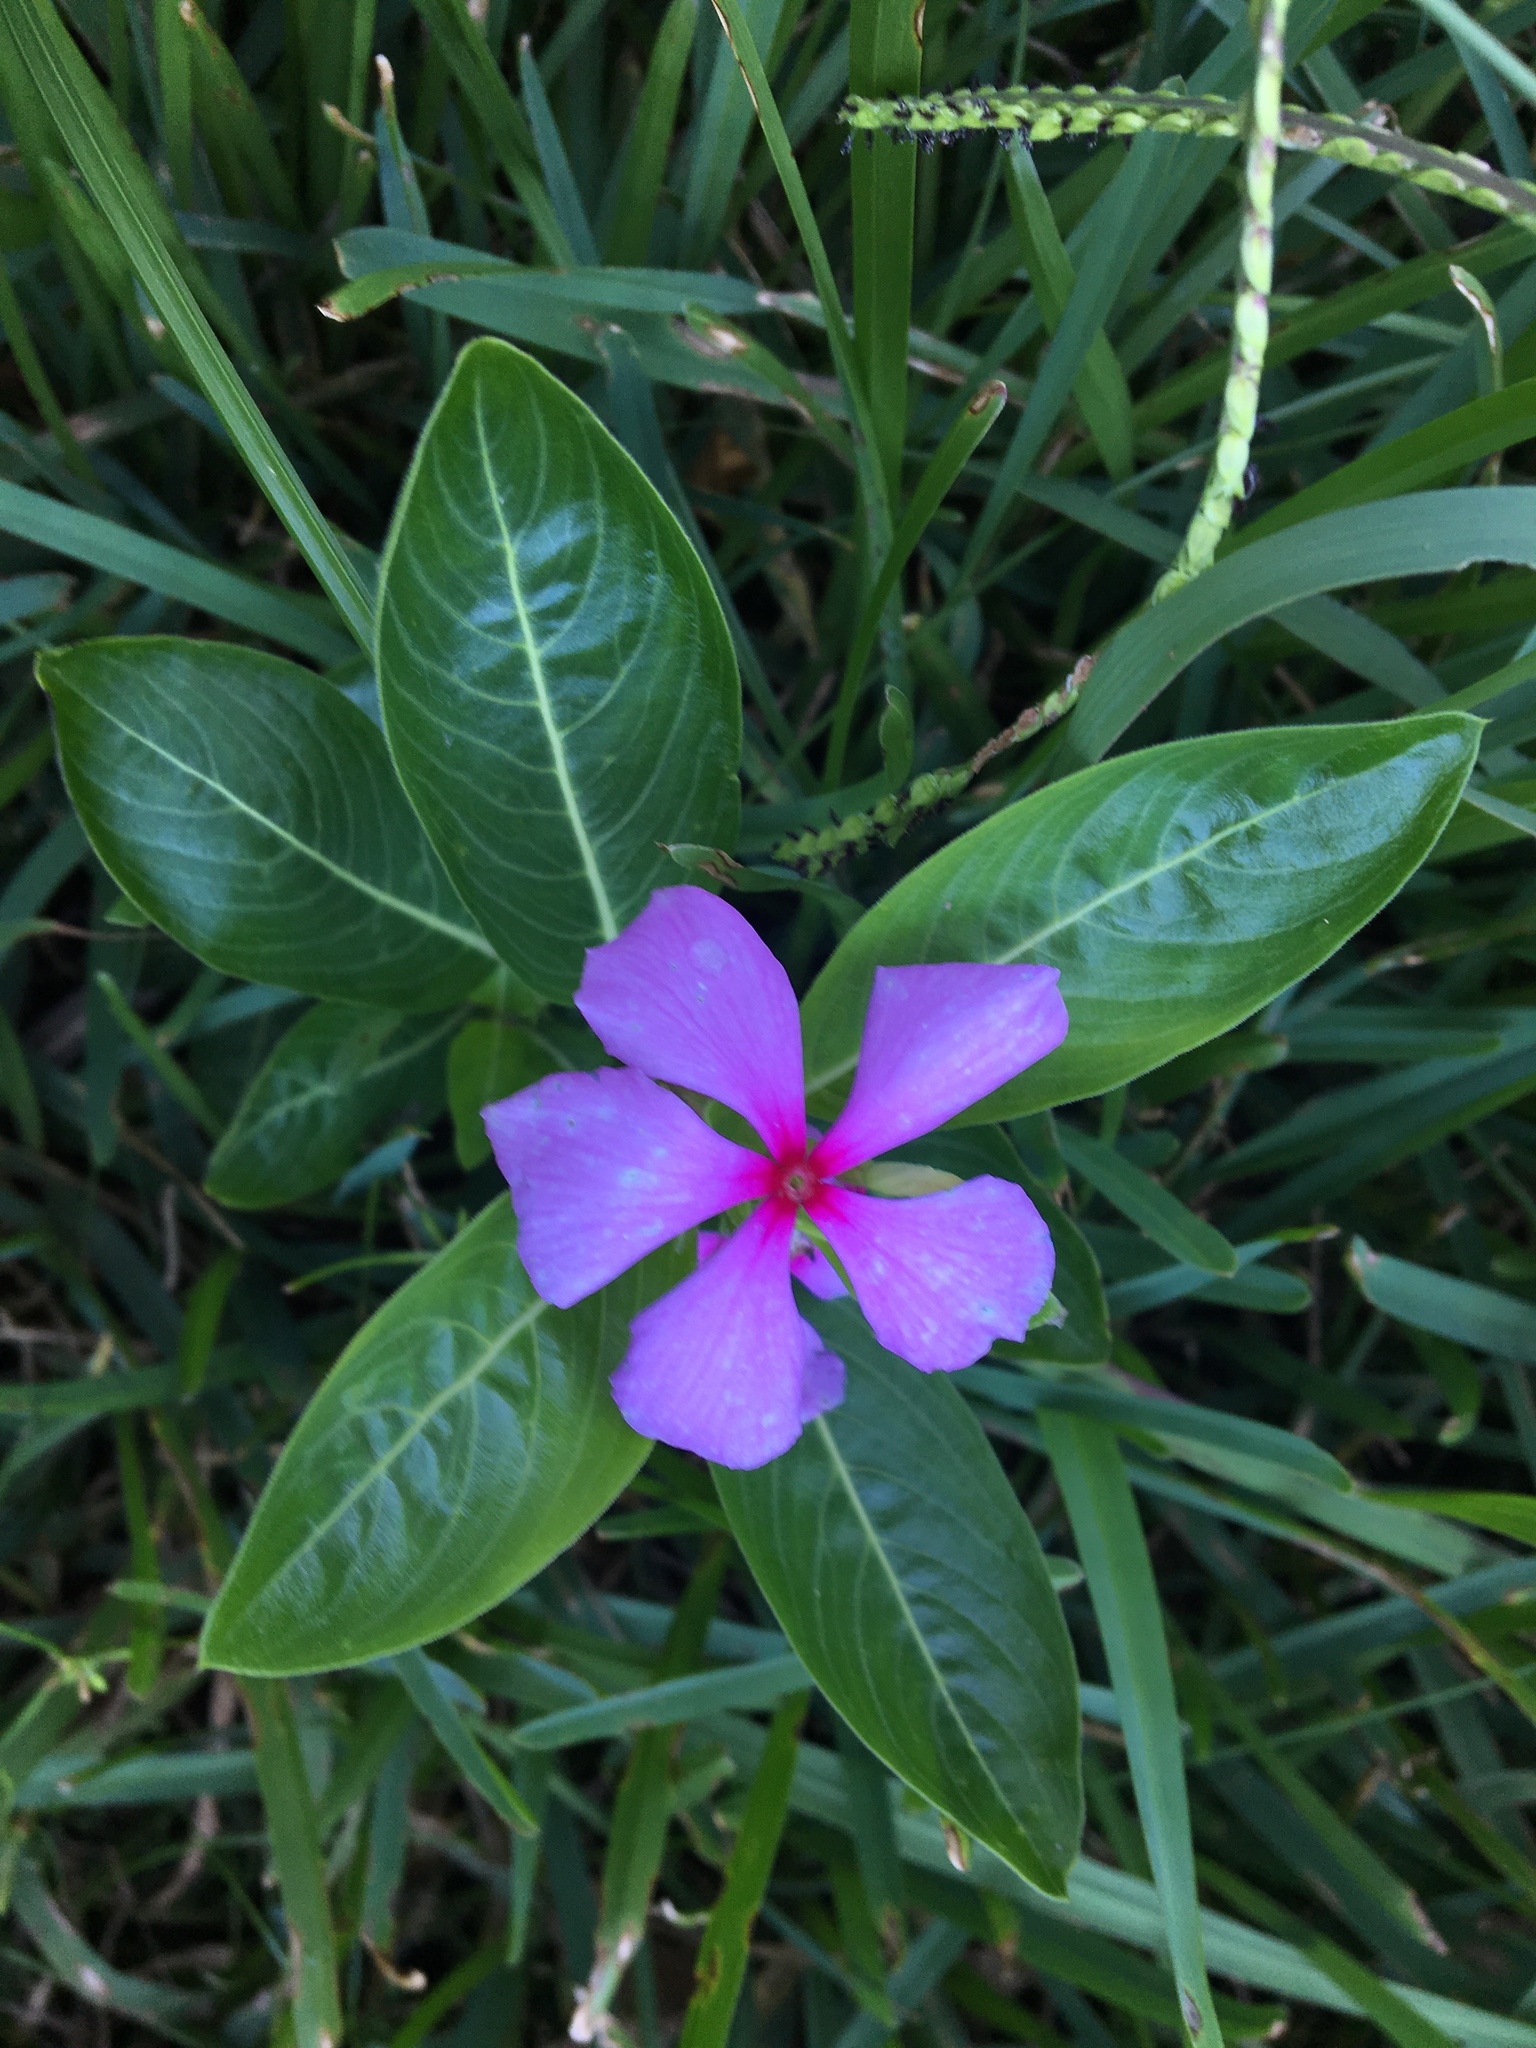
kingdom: Plantae
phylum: Tracheophyta
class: Magnoliopsida
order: Gentianales
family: Apocynaceae
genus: Catharanthus
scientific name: Catharanthus roseus
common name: Madagascar periwinkle
